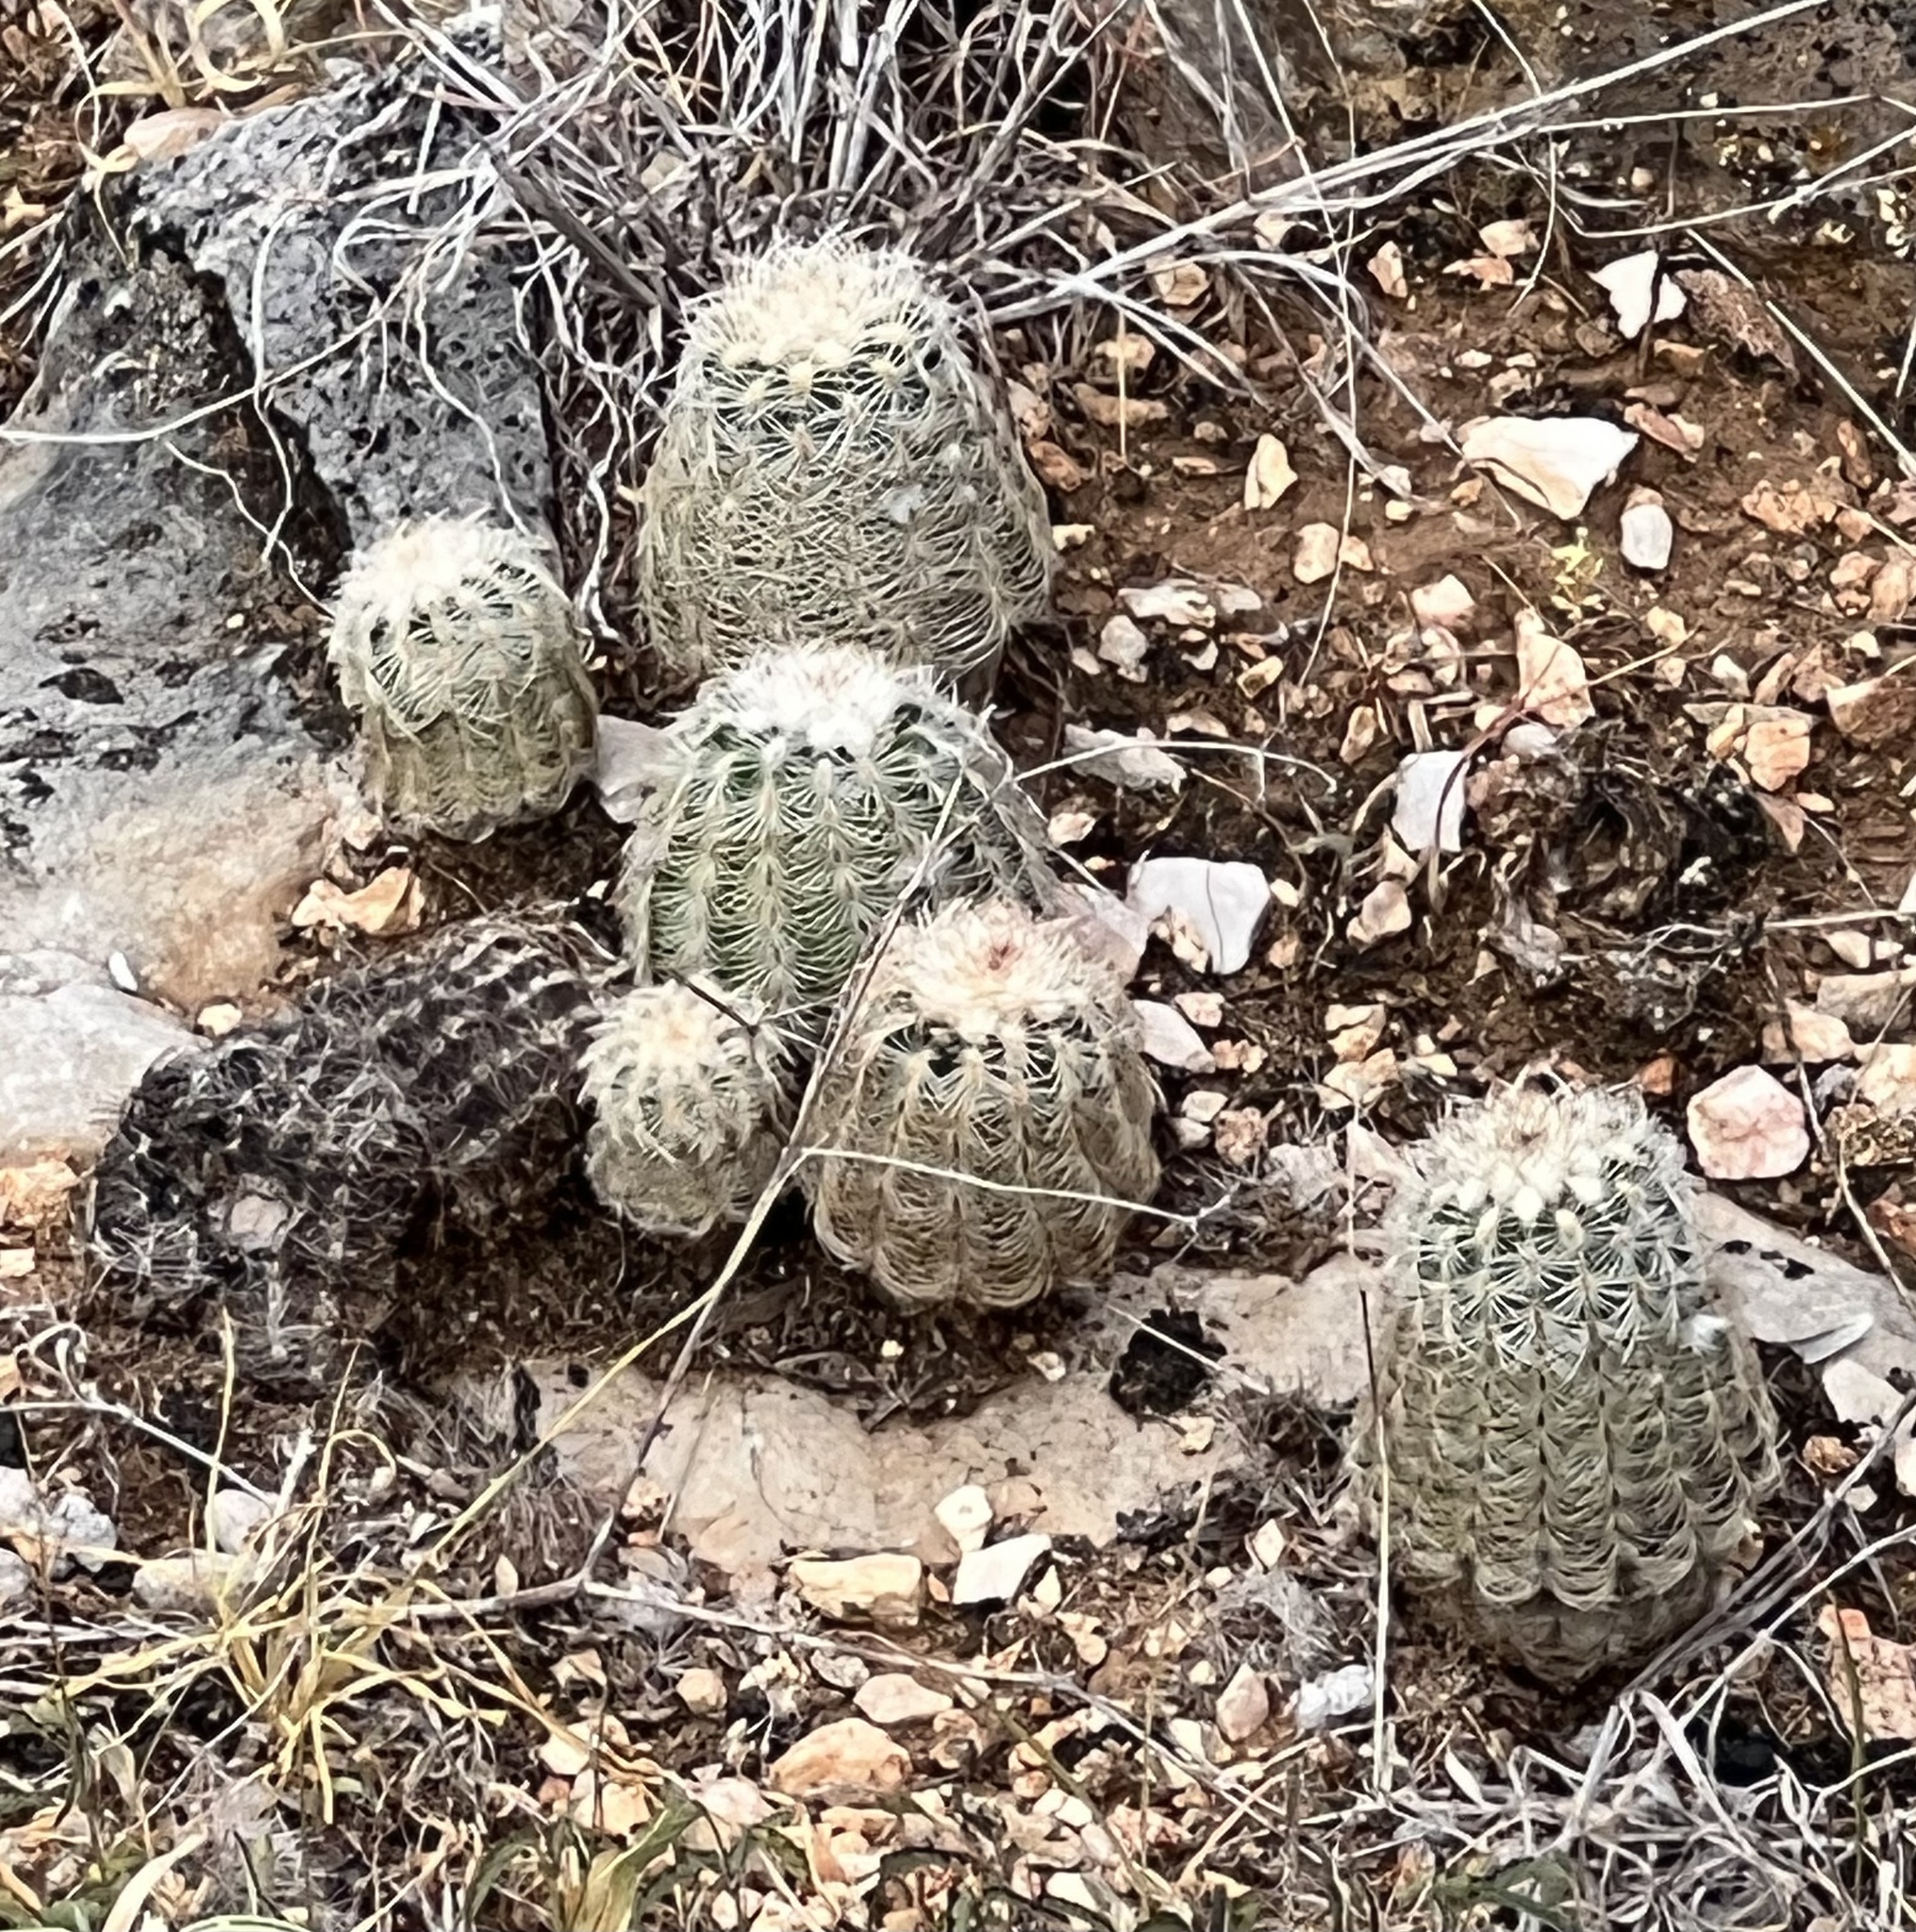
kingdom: Plantae
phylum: Tracheophyta
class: Magnoliopsida
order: Caryophyllales
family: Cactaceae
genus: Echinocereus
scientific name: Echinocereus reichenbachii
